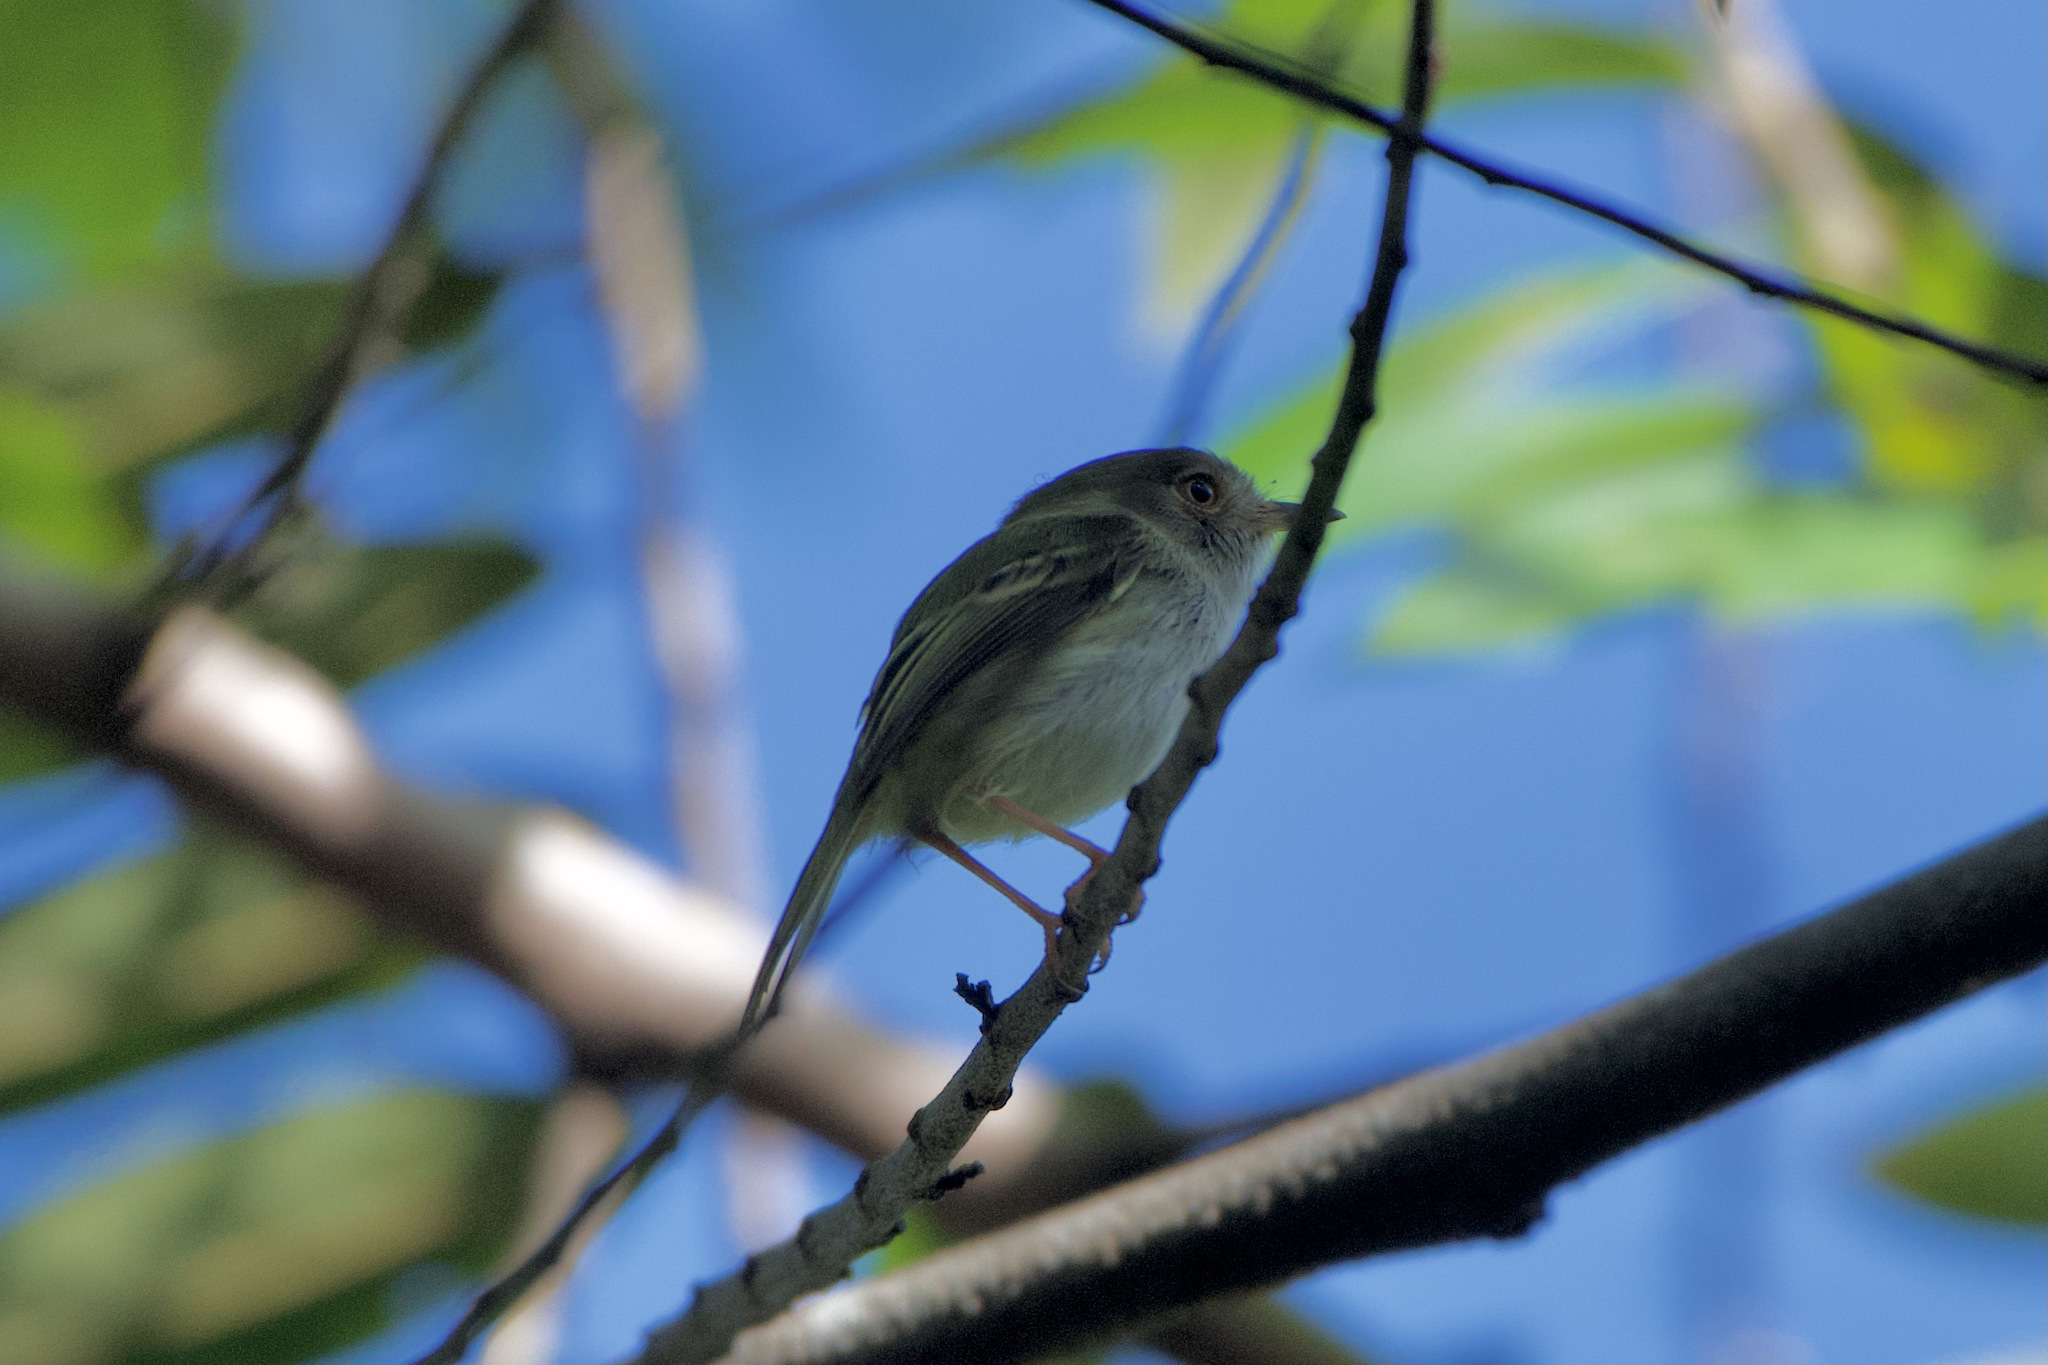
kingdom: Animalia
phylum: Chordata
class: Aves
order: Passeriformes
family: Tyrannidae
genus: Atalotriccus
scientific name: Atalotriccus pilaris
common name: Pale-eyed pygmy-tyrant
